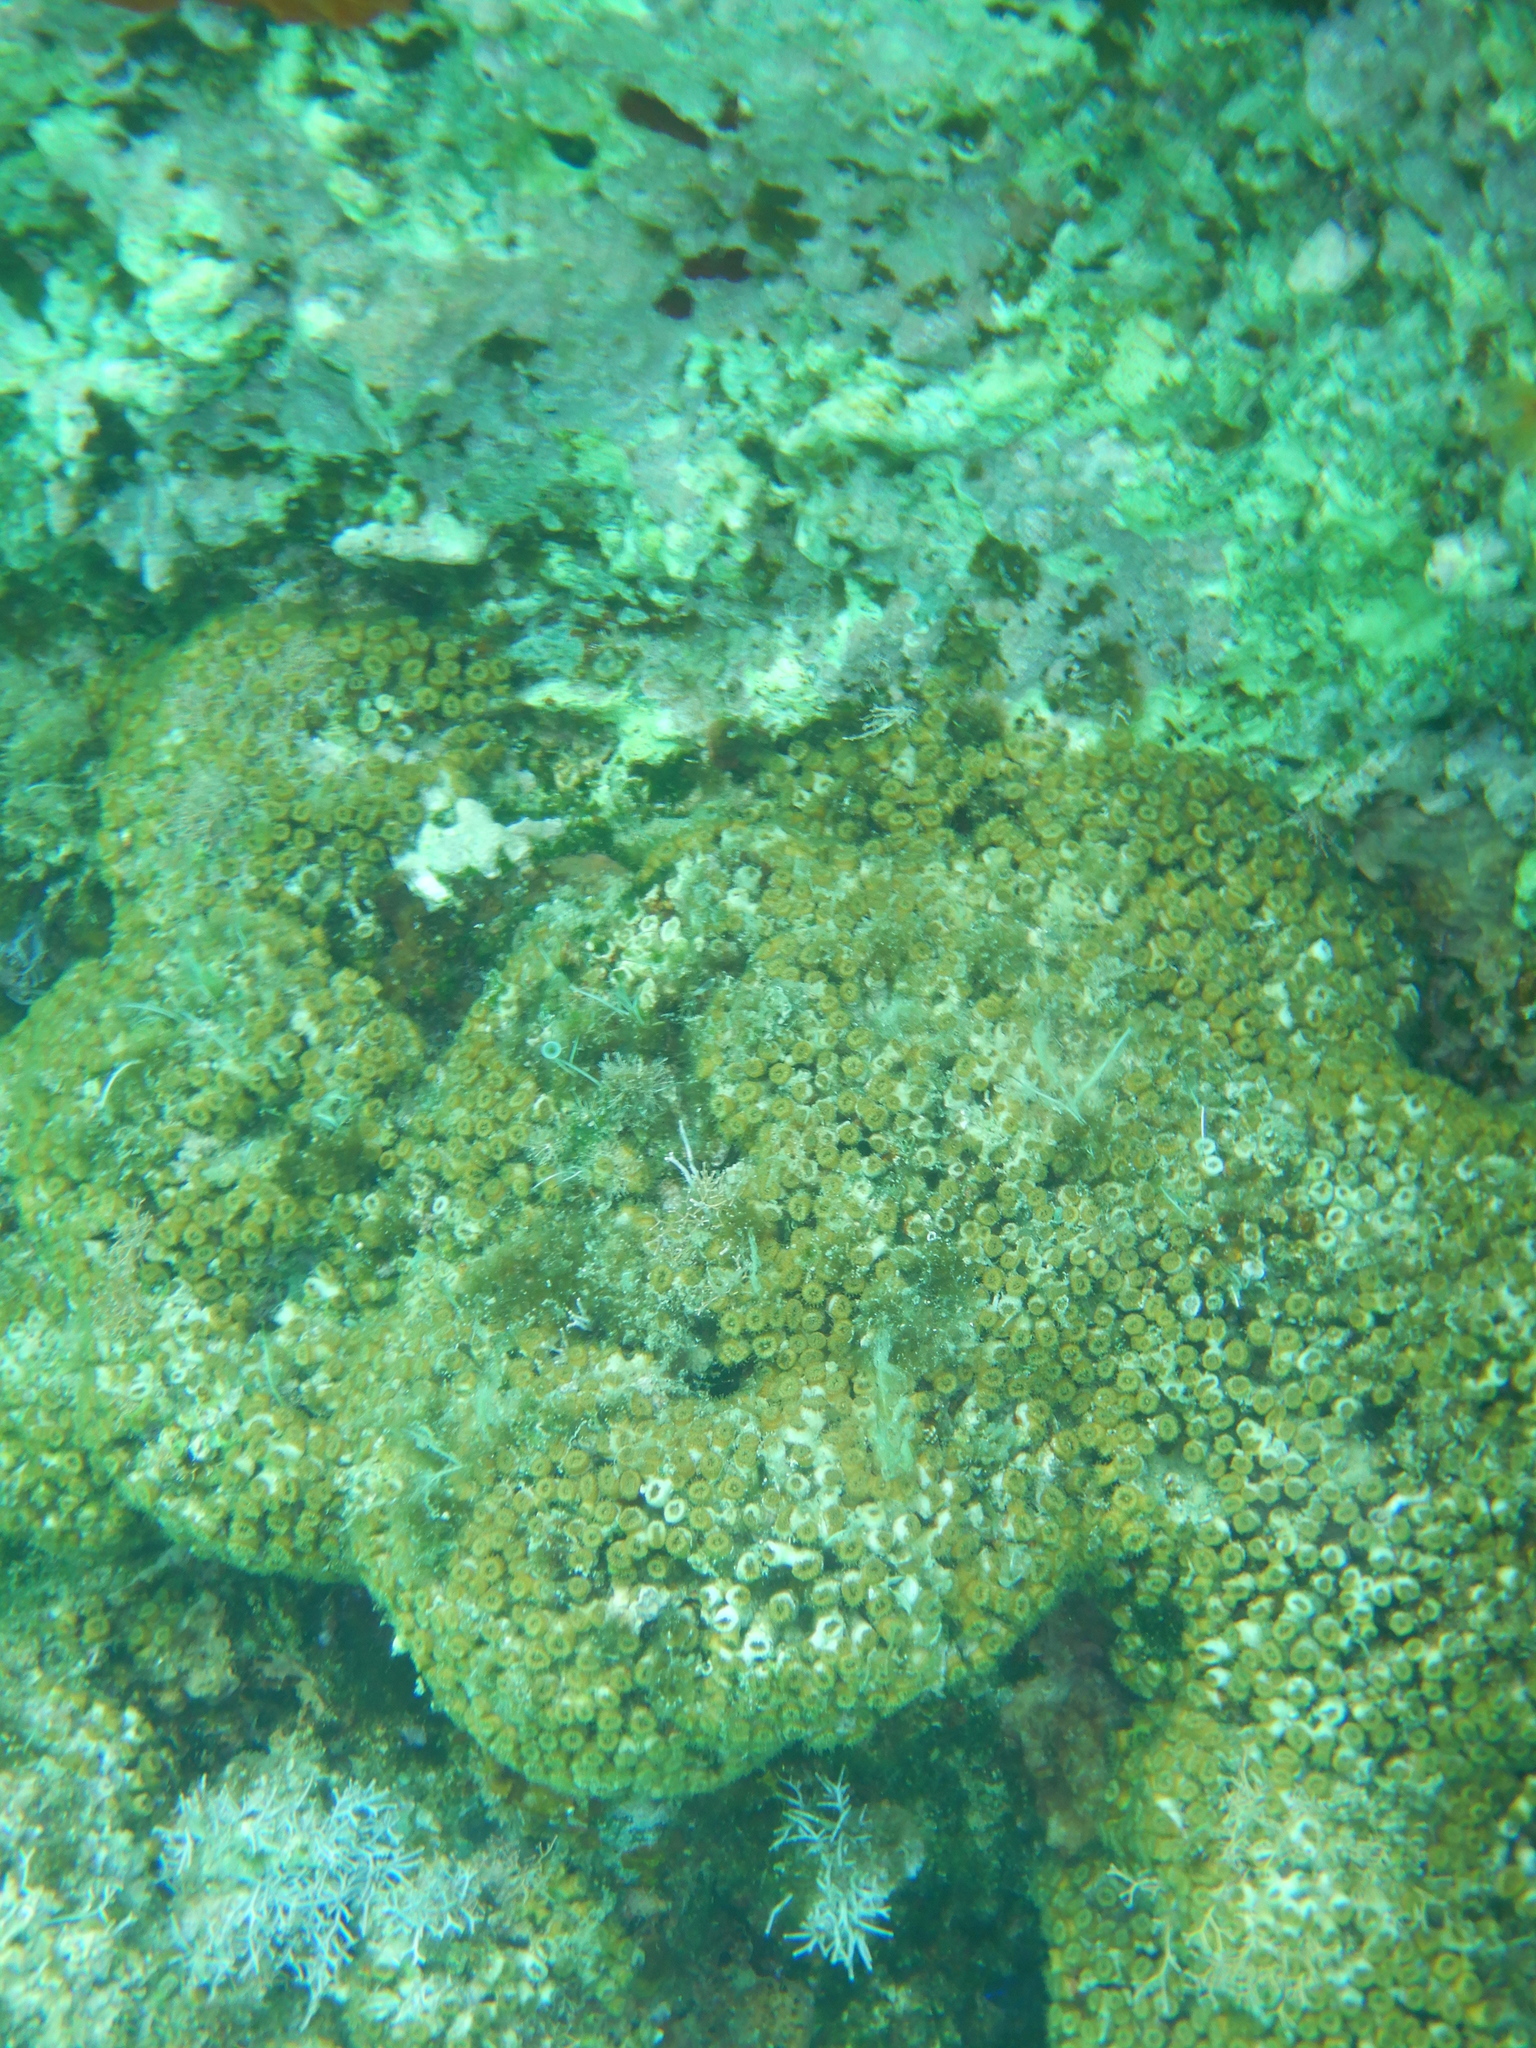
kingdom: Animalia
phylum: Cnidaria
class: Anthozoa
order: Scleractinia
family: Cladocoridae
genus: Cladocora
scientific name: Cladocora caespitosa
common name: Cladocora
